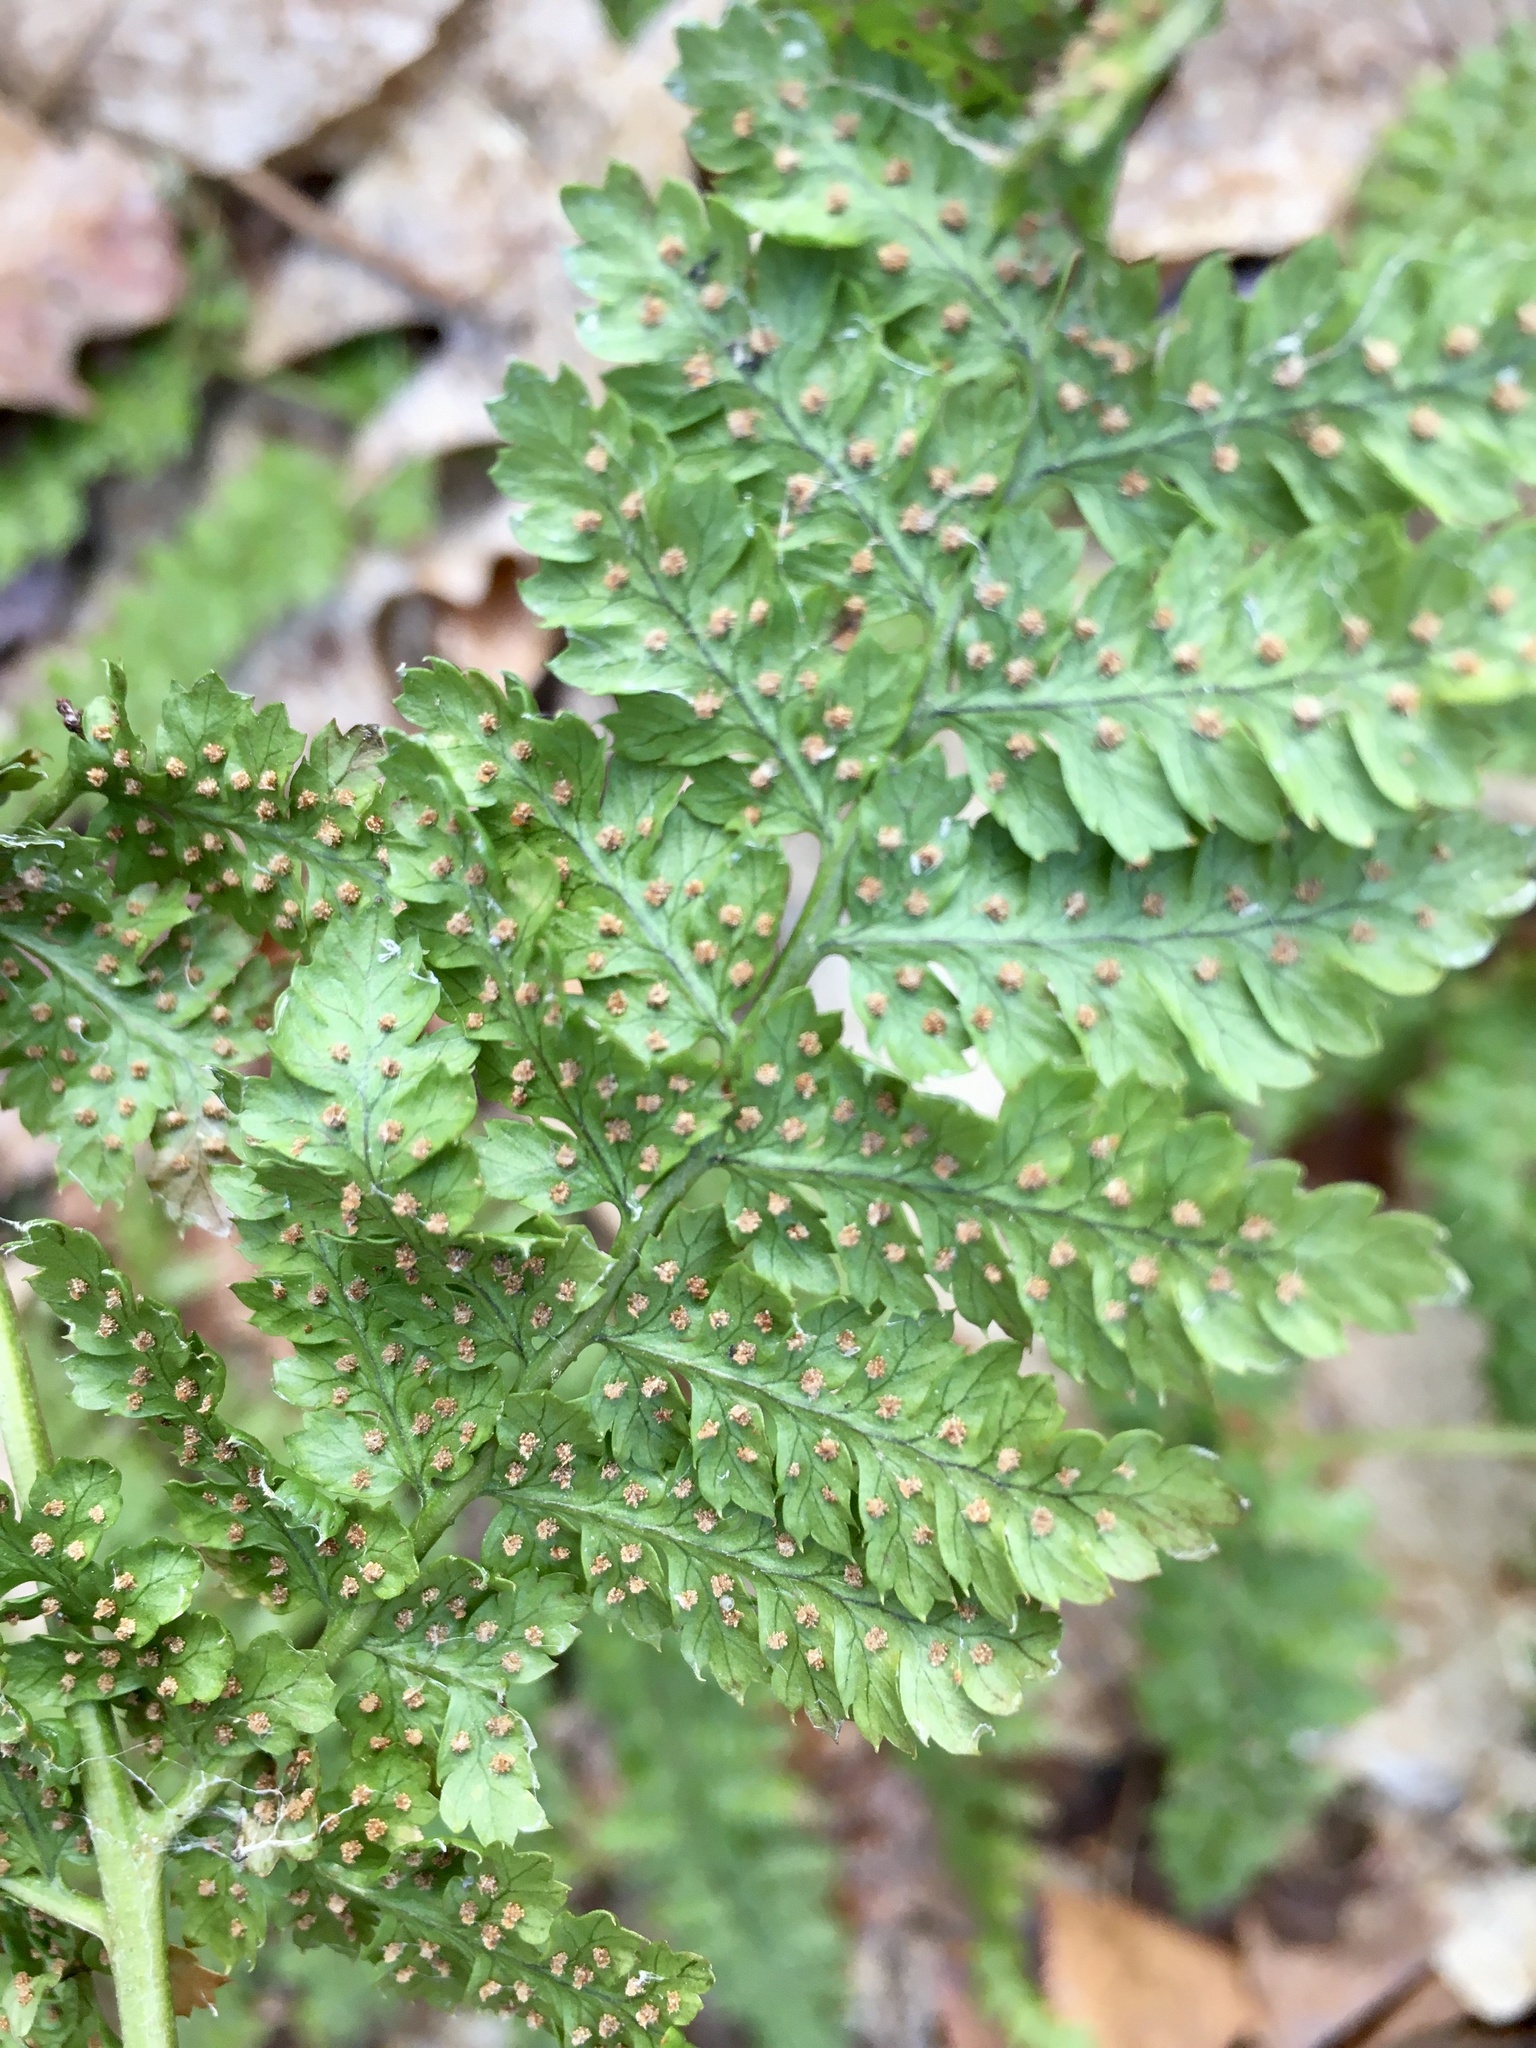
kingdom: Plantae
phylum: Tracheophyta
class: Polypodiopsida
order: Polypodiales
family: Dryopteridaceae
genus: Dryopteris
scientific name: Dryopteris intermedia
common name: Evergreen wood fern
